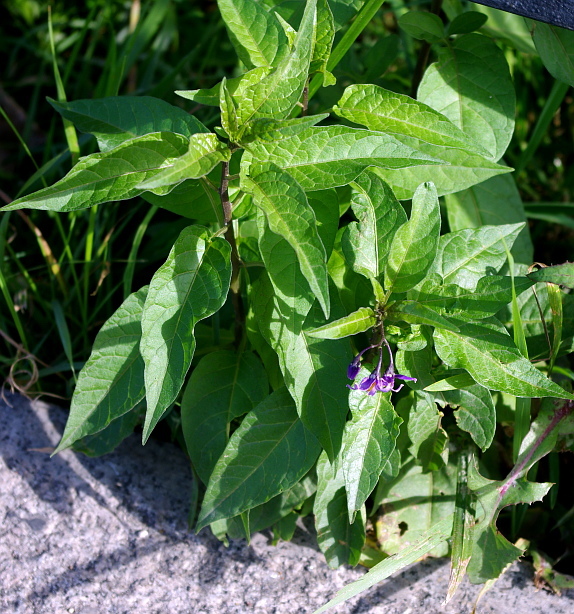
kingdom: Plantae
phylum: Tracheophyta
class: Magnoliopsida
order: Solanales
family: Solanaceae
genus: Solanum
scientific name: Solanum dulcamara
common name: Climbing nightshade
